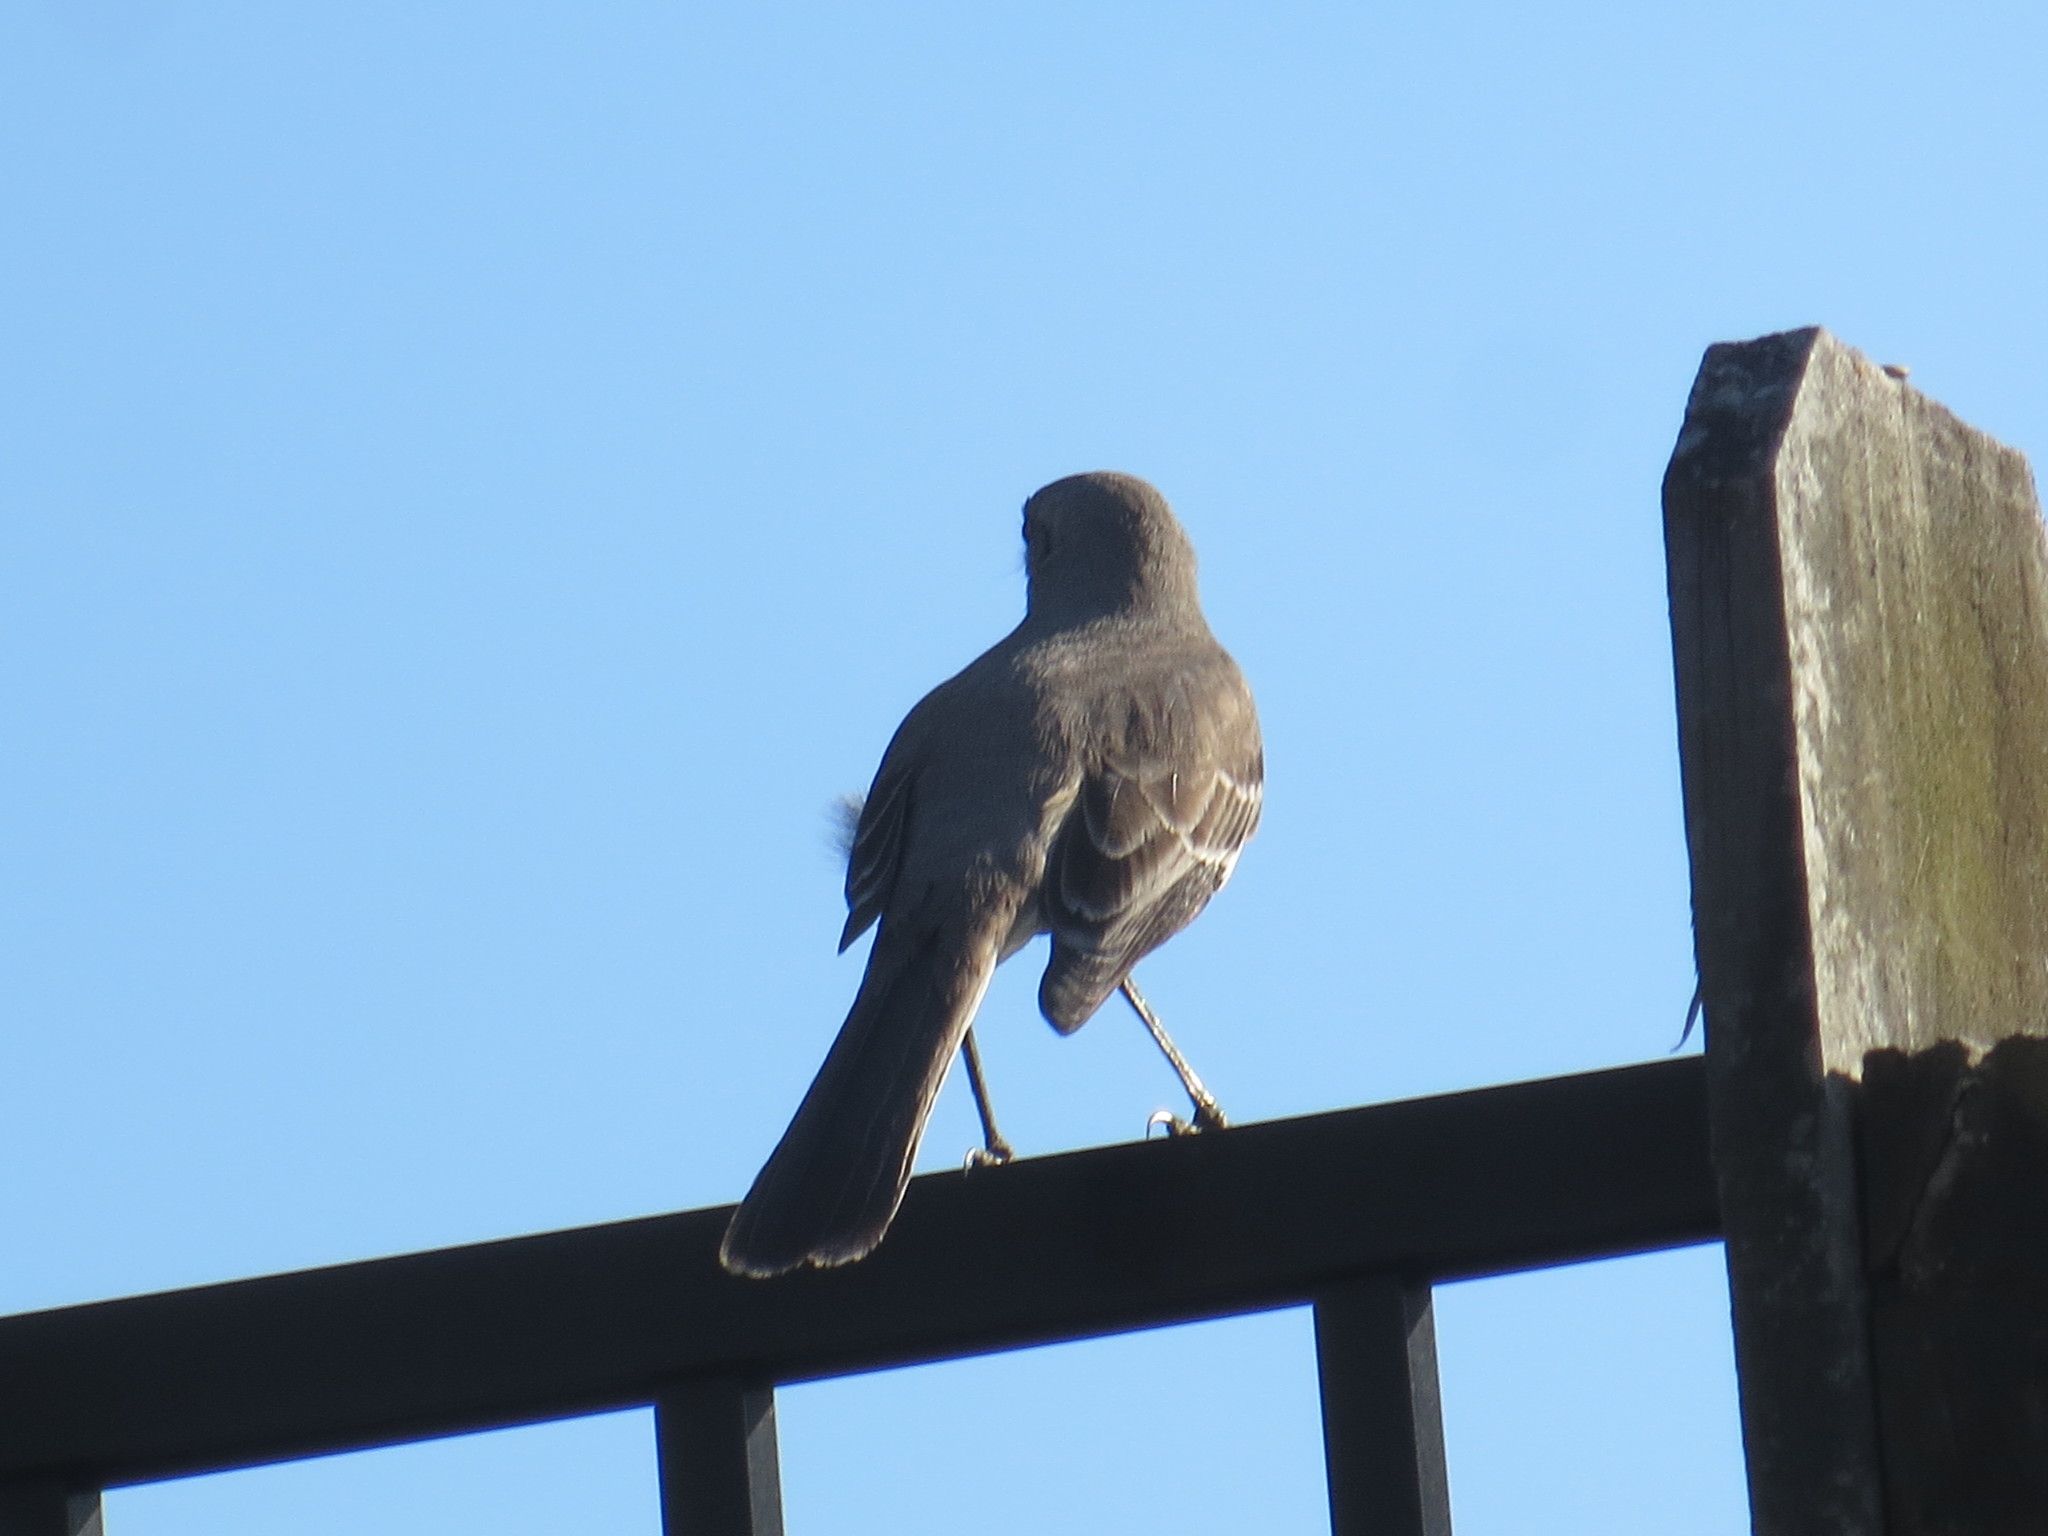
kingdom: Animalia
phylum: Chordata
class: Aves
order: Passeriformes
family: Mimidae
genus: Mimus
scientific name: Mimus polyglottos
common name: Northern mockingbird
